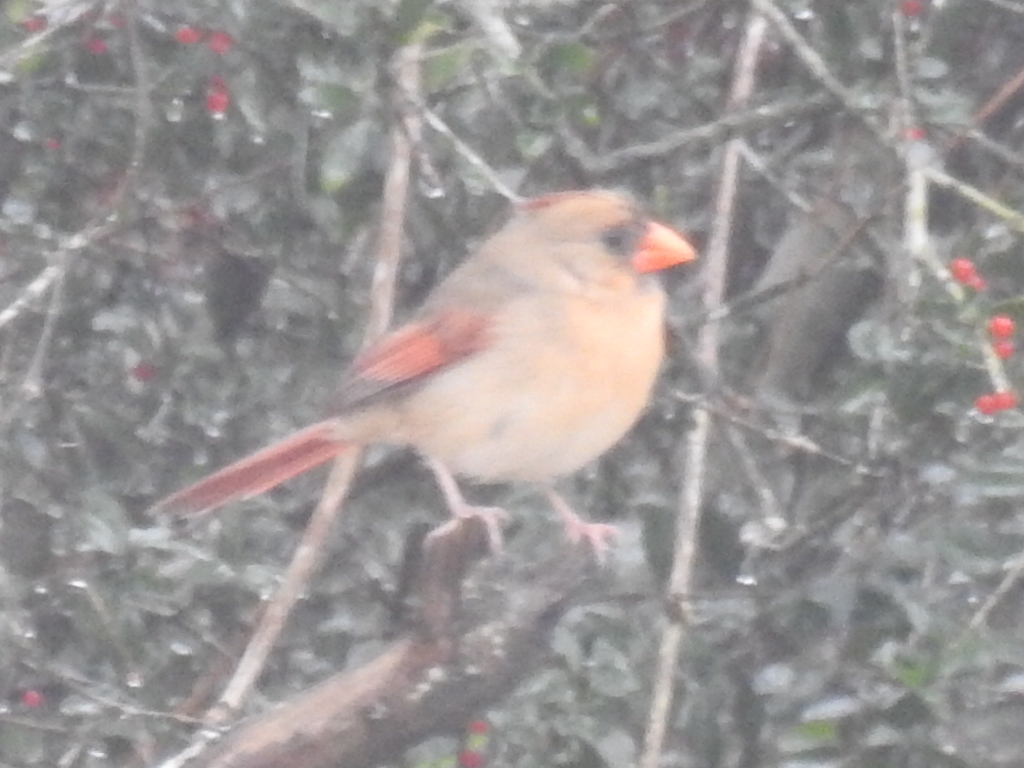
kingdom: Animalia
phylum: Chordata
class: Aves
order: Passeriformes
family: Cardinalidae
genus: Cardinalis
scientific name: Cardinalis cardinalis
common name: Northern cardinal
